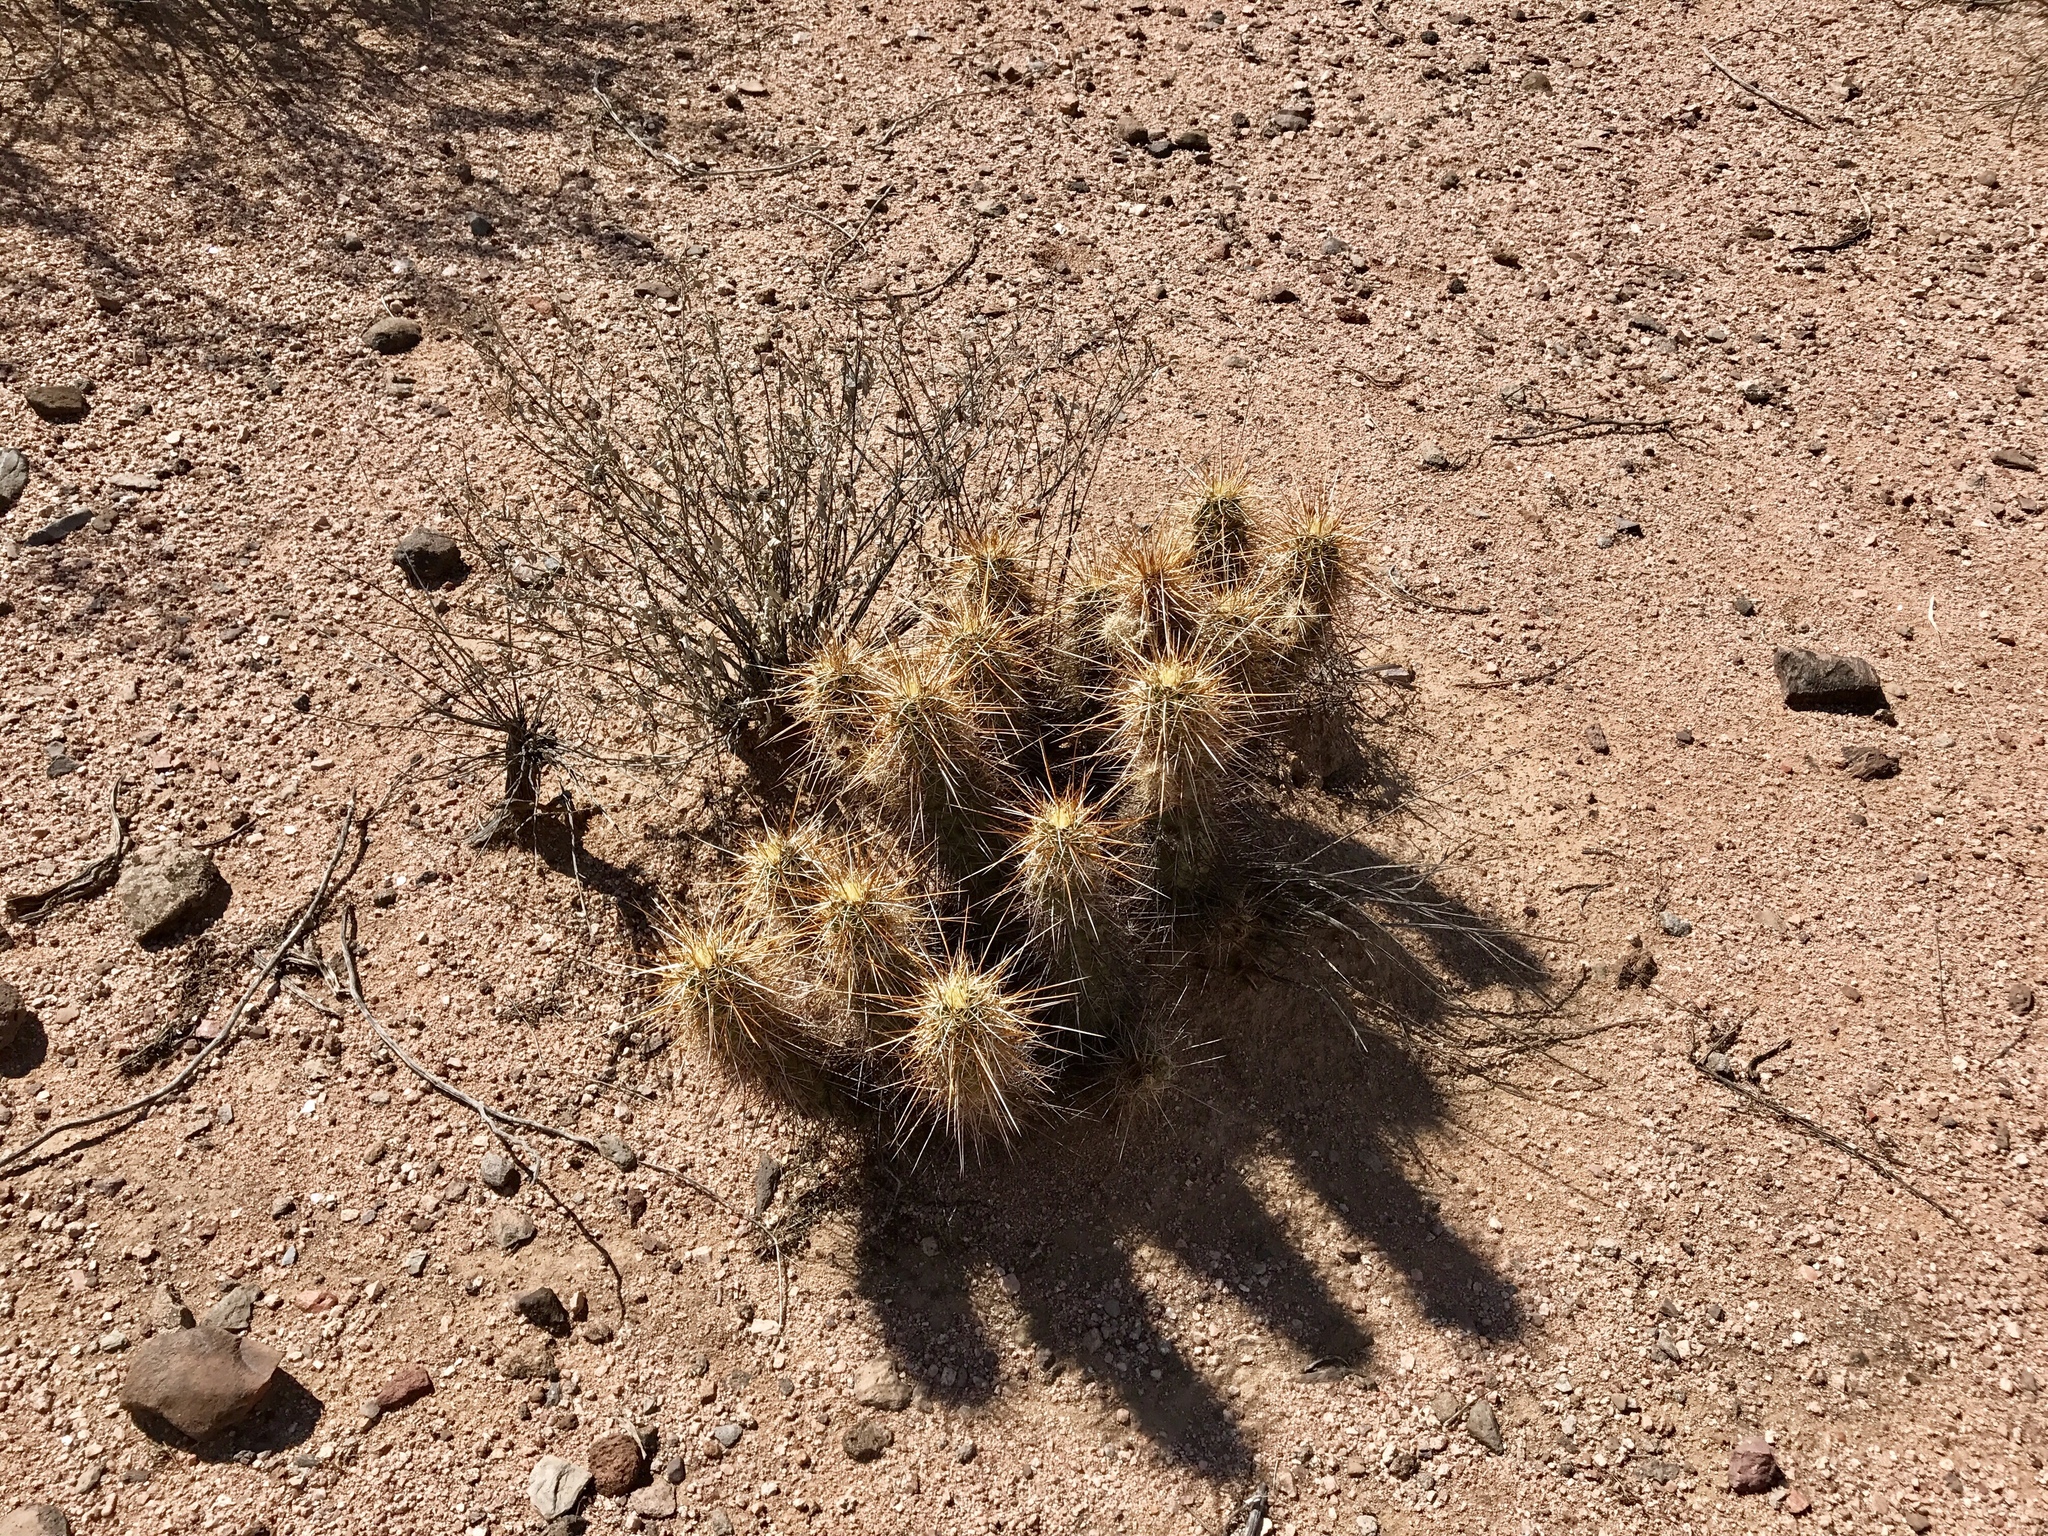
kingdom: Plantae
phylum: Tracheophyta
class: Magnoliopsida
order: Caryophyllales
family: Cactaceae
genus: Echinocereus
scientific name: Echinocereus engelmannii
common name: Engelmann's hedgehog cactus
